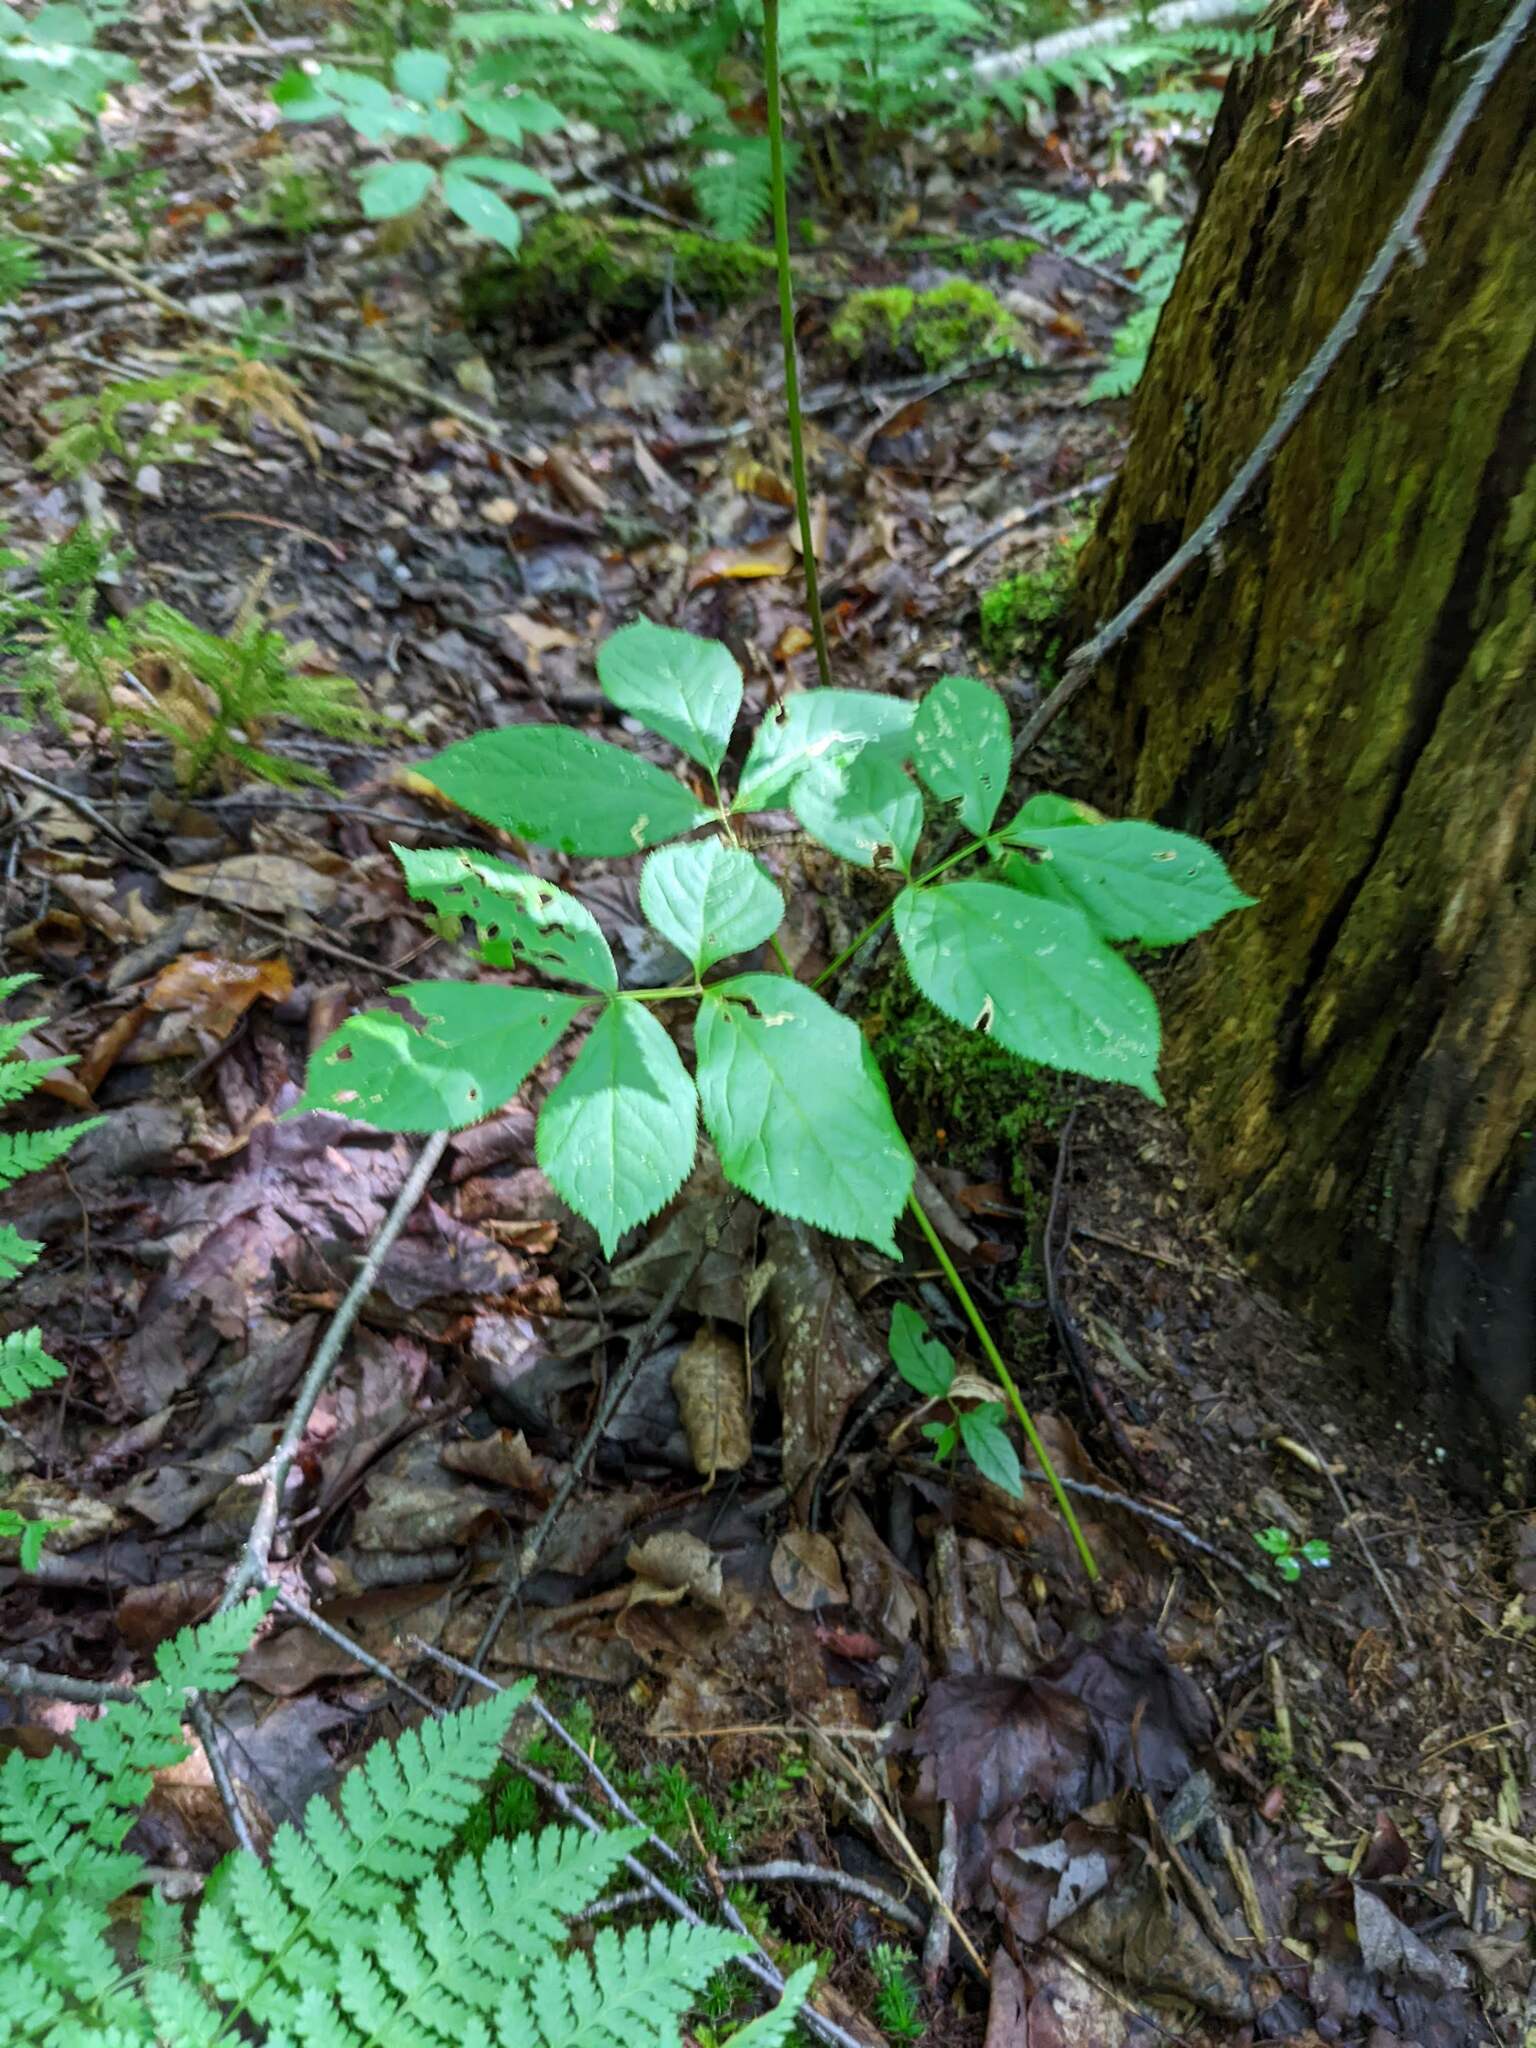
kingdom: Plantae
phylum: Tracheophyta
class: Magnoliopsida
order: Apiales
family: Araliaceae
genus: Aralia
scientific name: Aralia nudicaulis
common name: Wild sarsaparilla
